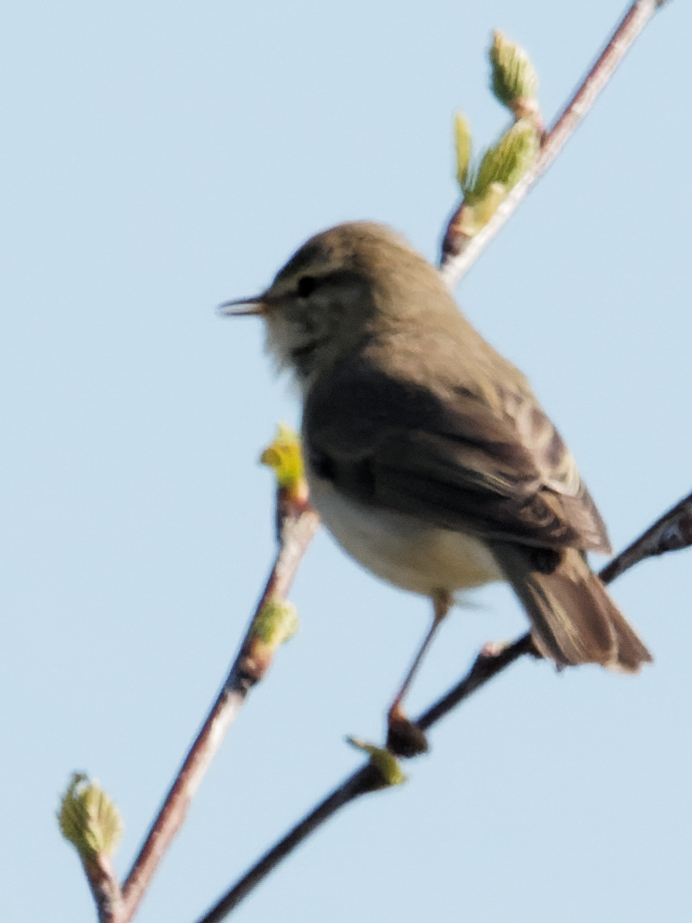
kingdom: Animalia
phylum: Chordata
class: Aves
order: Passeriformes
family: Phylloscopidae
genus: Phylloscopus
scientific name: Phylloscopus trochilus
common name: Willow warbler
